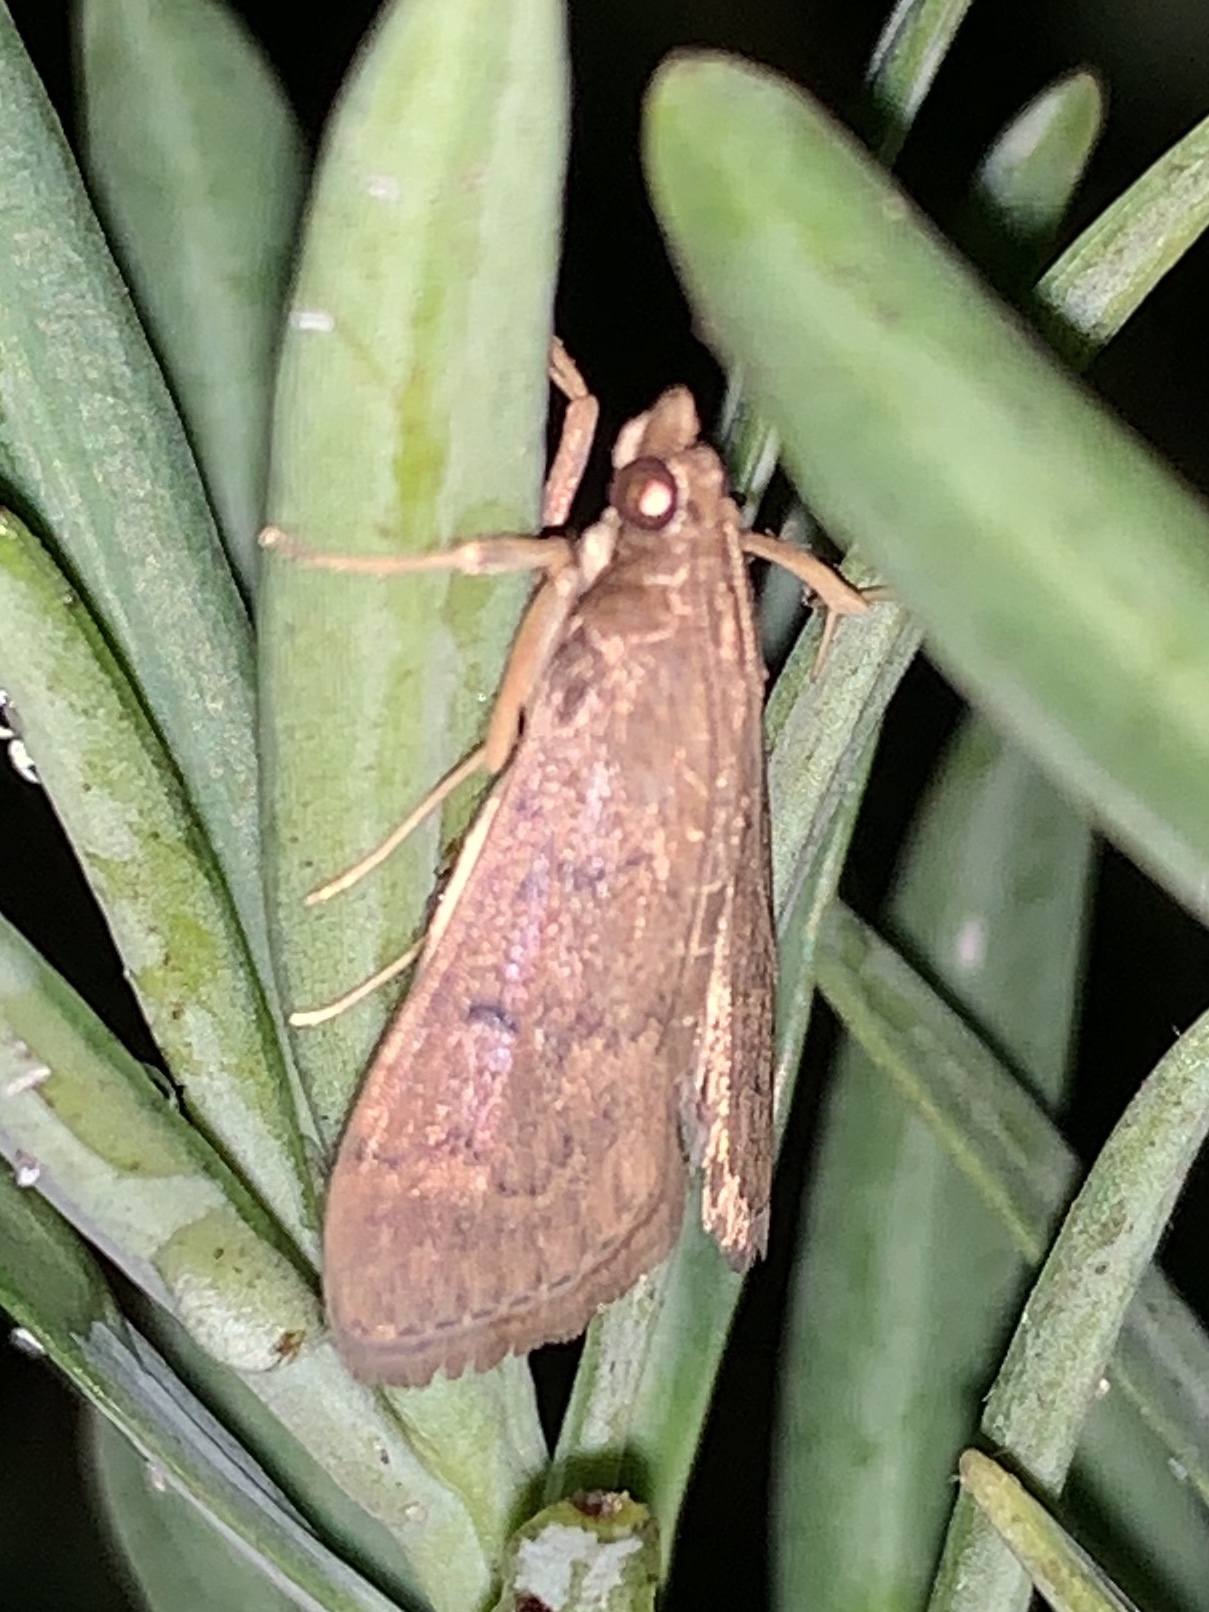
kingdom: Animalia
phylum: Arthropoda
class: Insecta
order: Lepidoptera
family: Crambidae
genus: Uresiphita
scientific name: Uresiphita reversalis
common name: Genista broom moth
